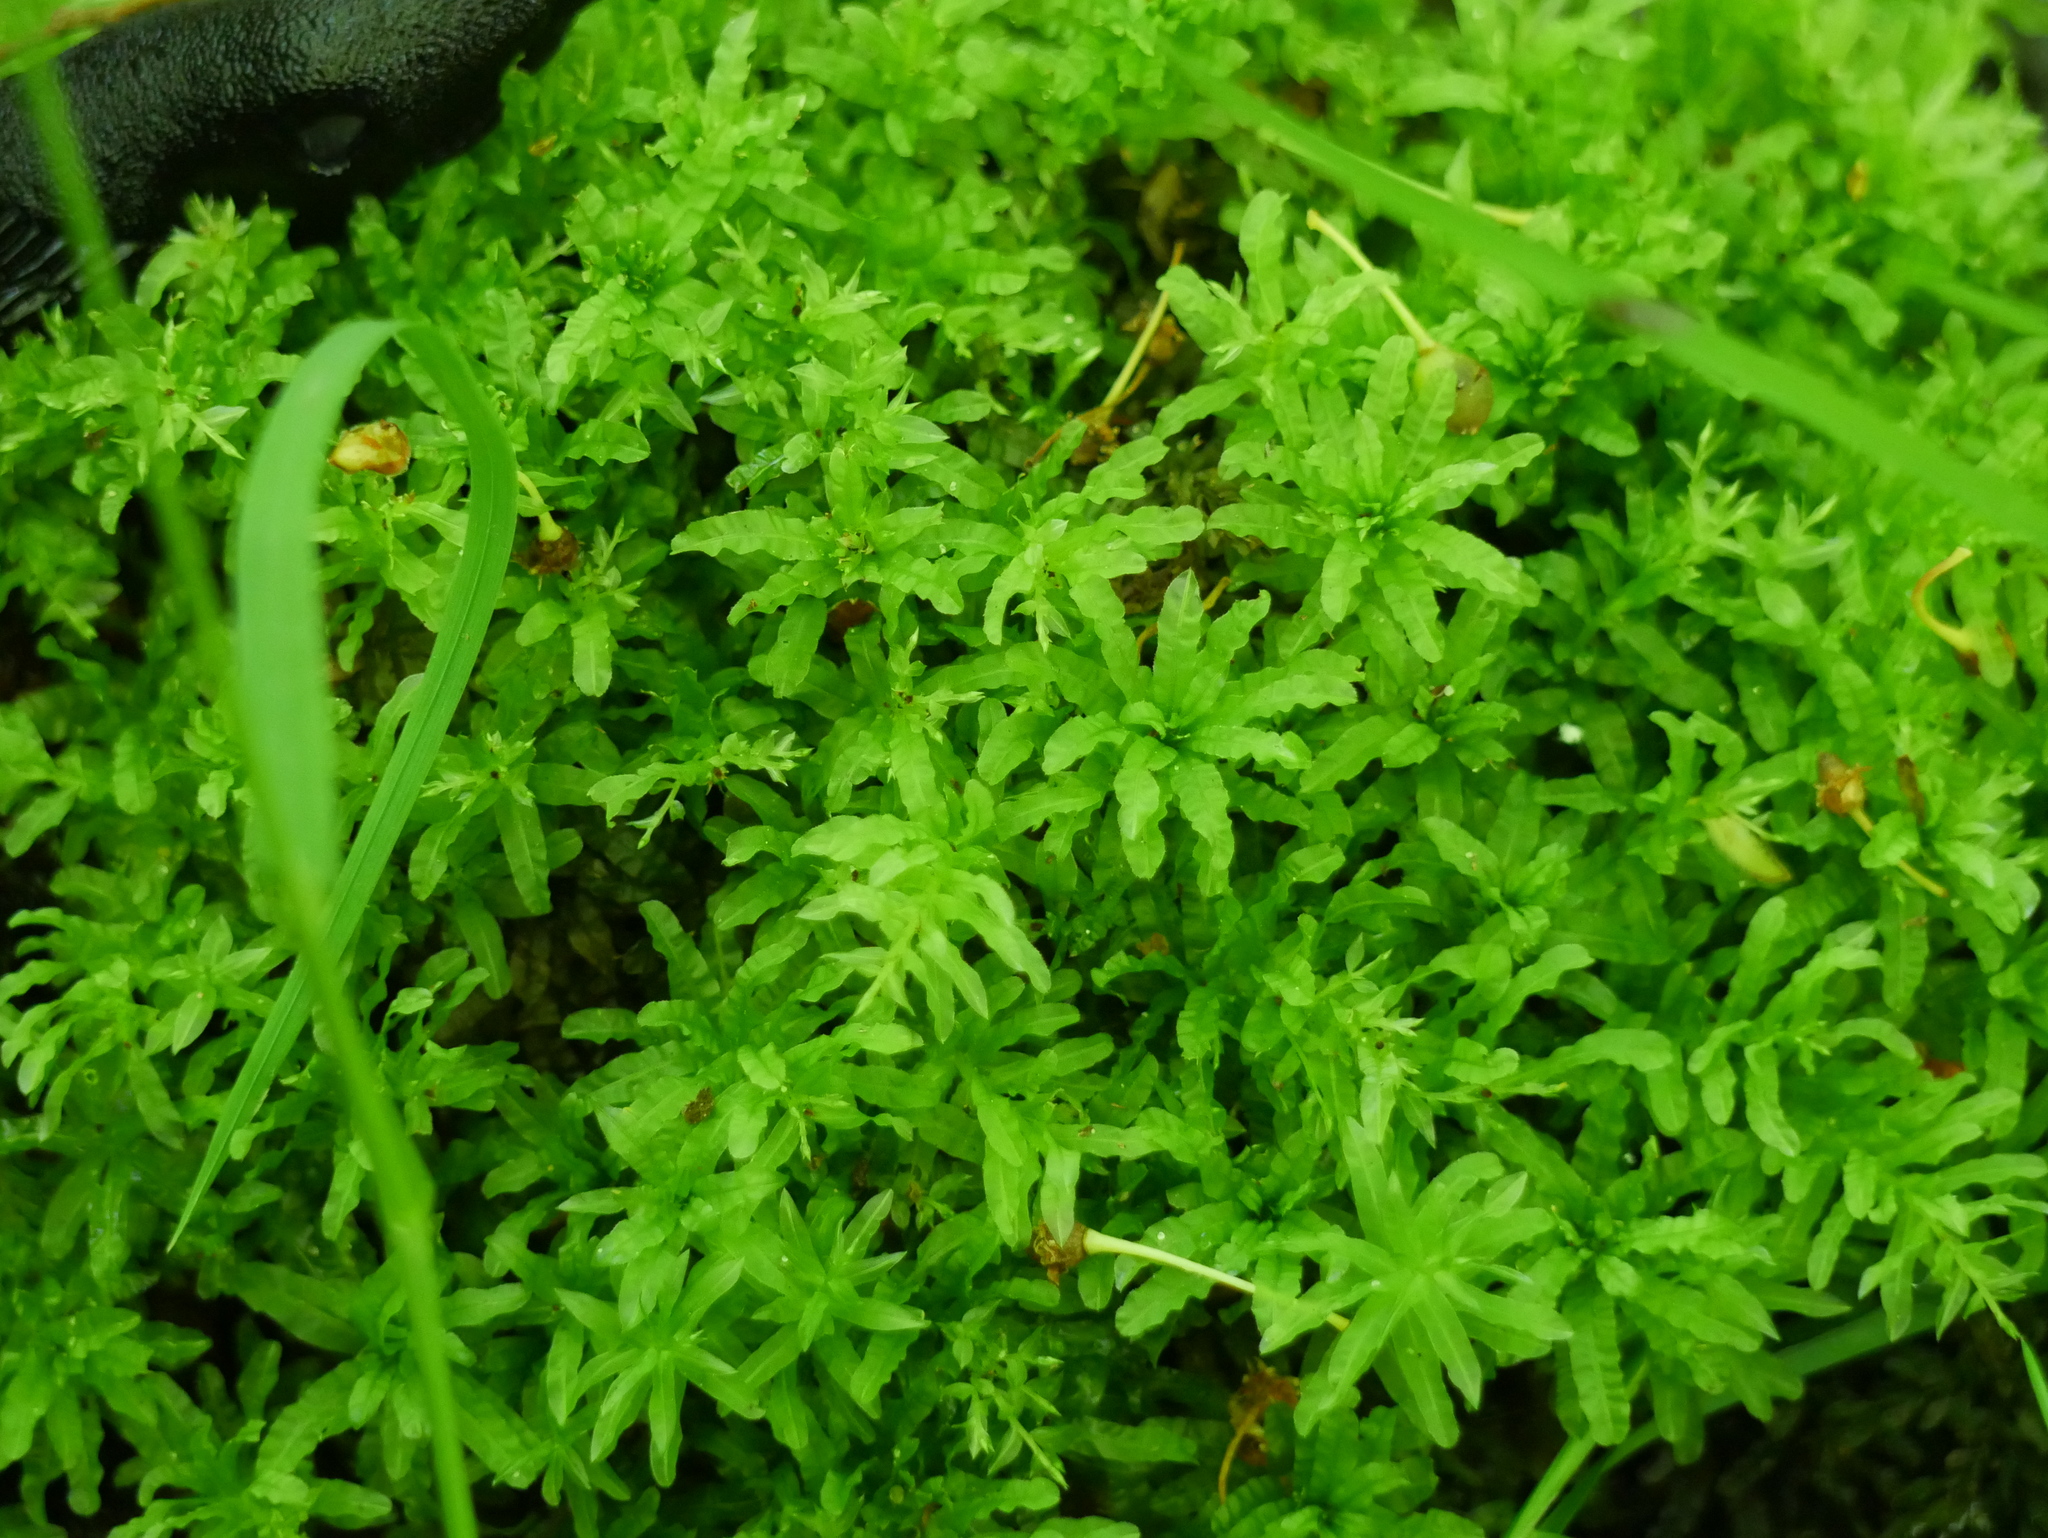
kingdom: Plantae
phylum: Bryophyta
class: Bryopsida
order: Bryales
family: Mniaceae
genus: Plagiomnium
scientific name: Plagiomnium undulatum
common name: Hart's-tongue thyme-moss
